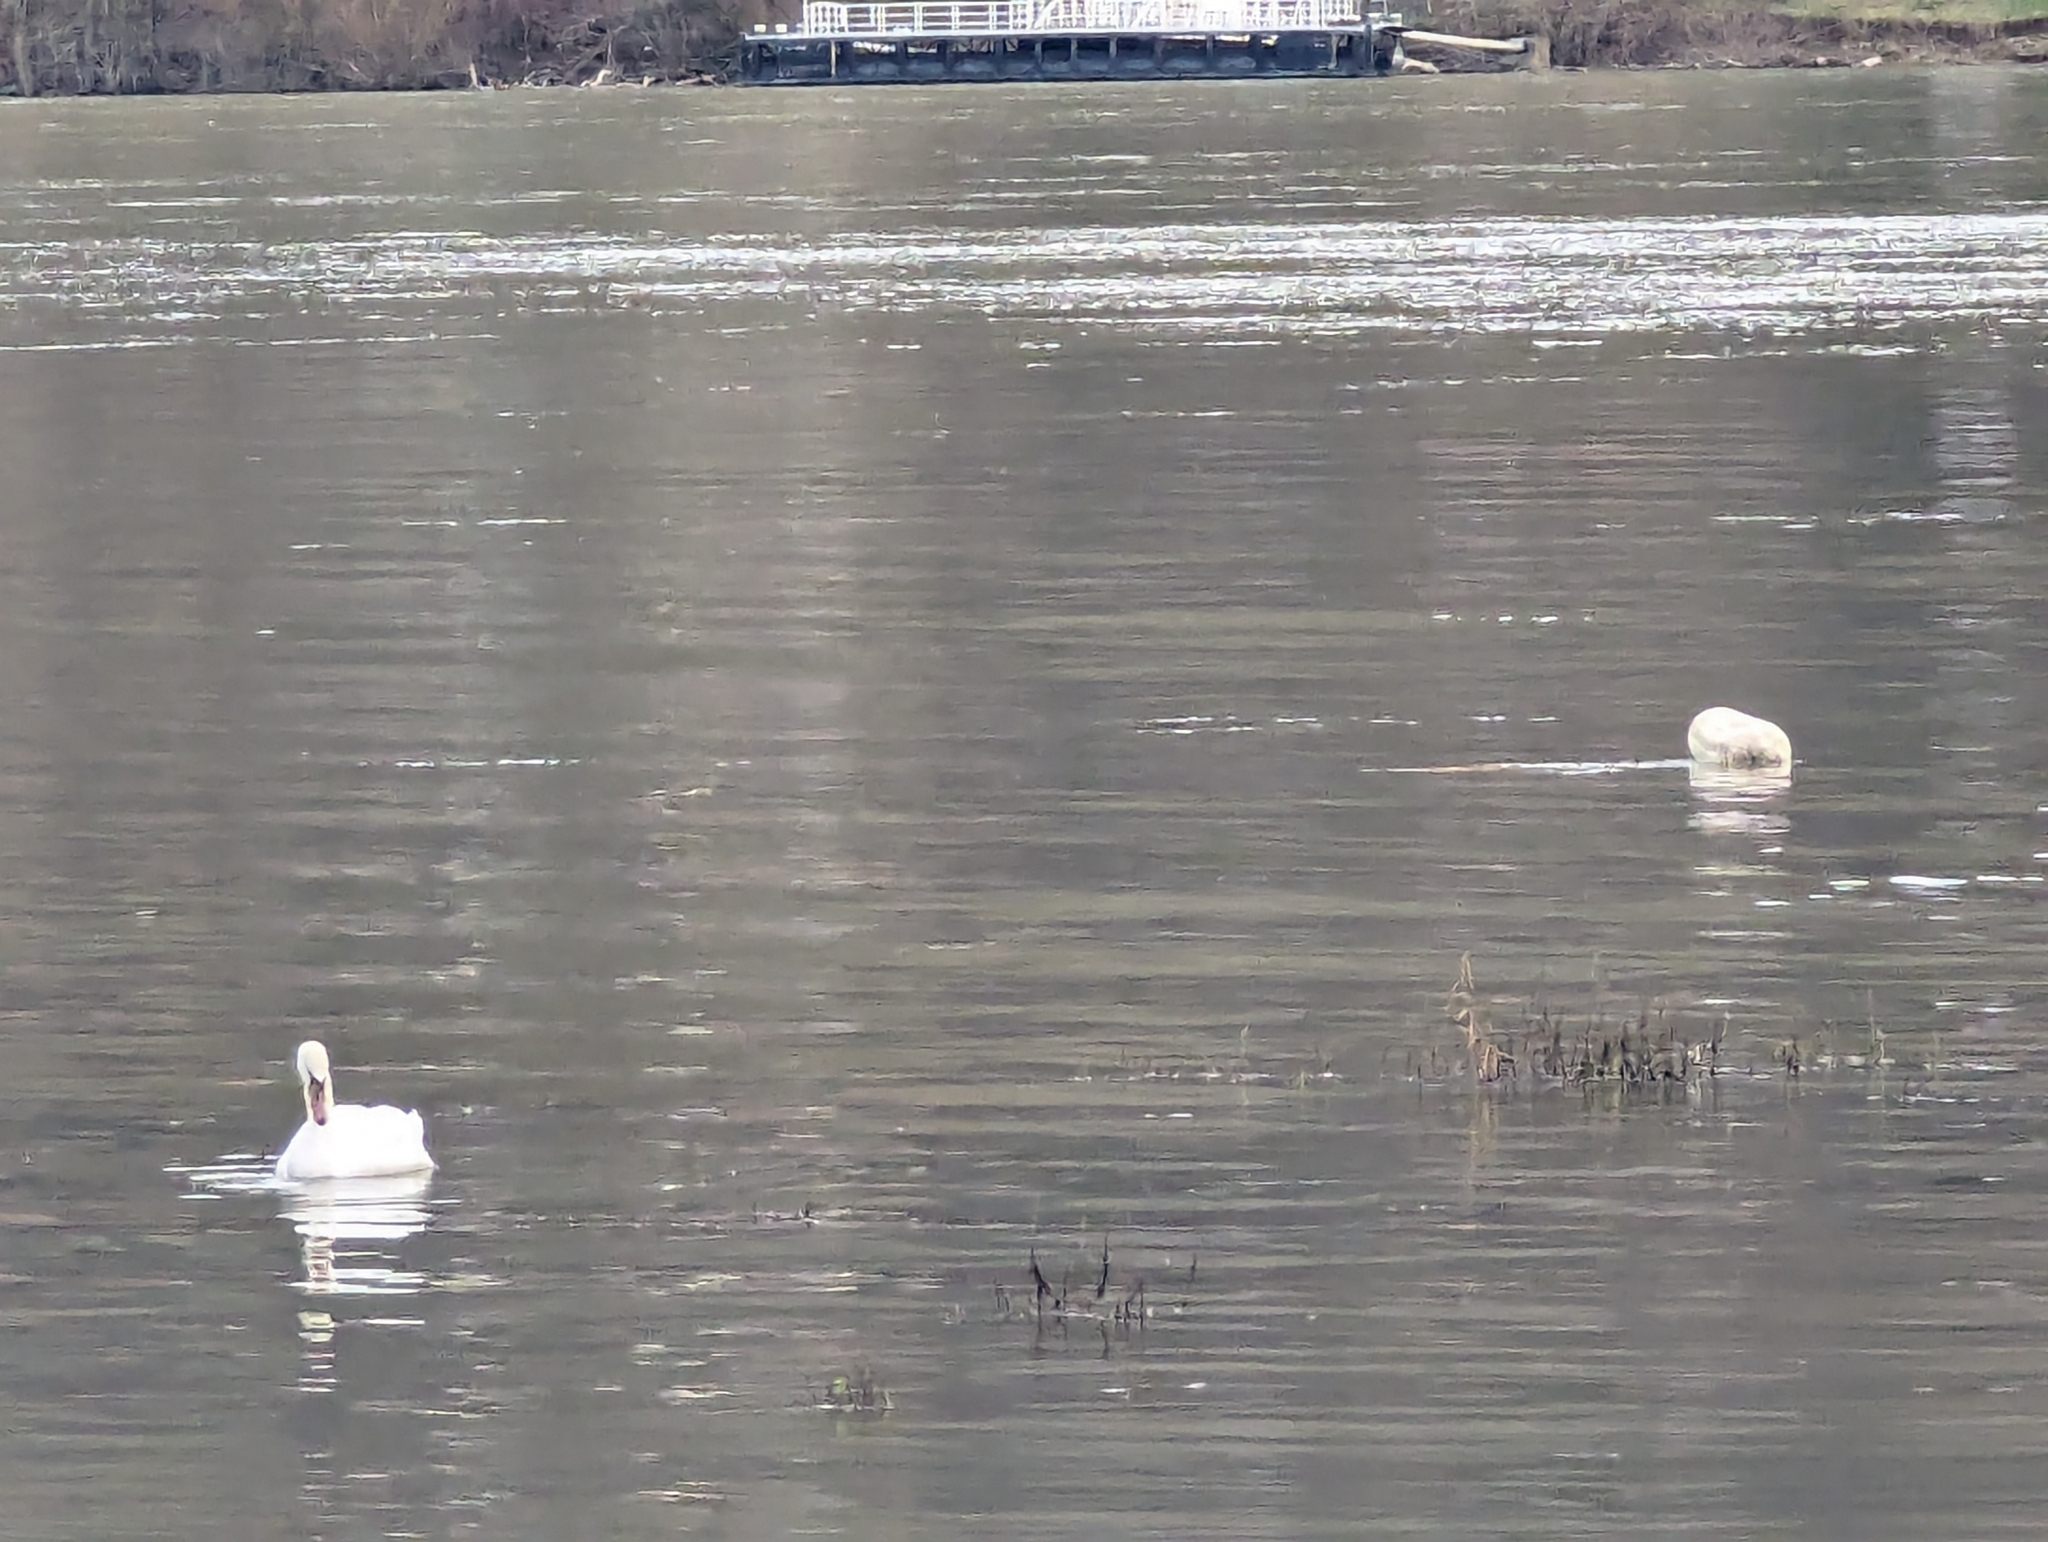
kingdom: Animalia
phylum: Chordata
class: Aves
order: Anseriformes
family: Anatidae
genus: Cygnus
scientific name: Cygnus olor
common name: Mute swan
